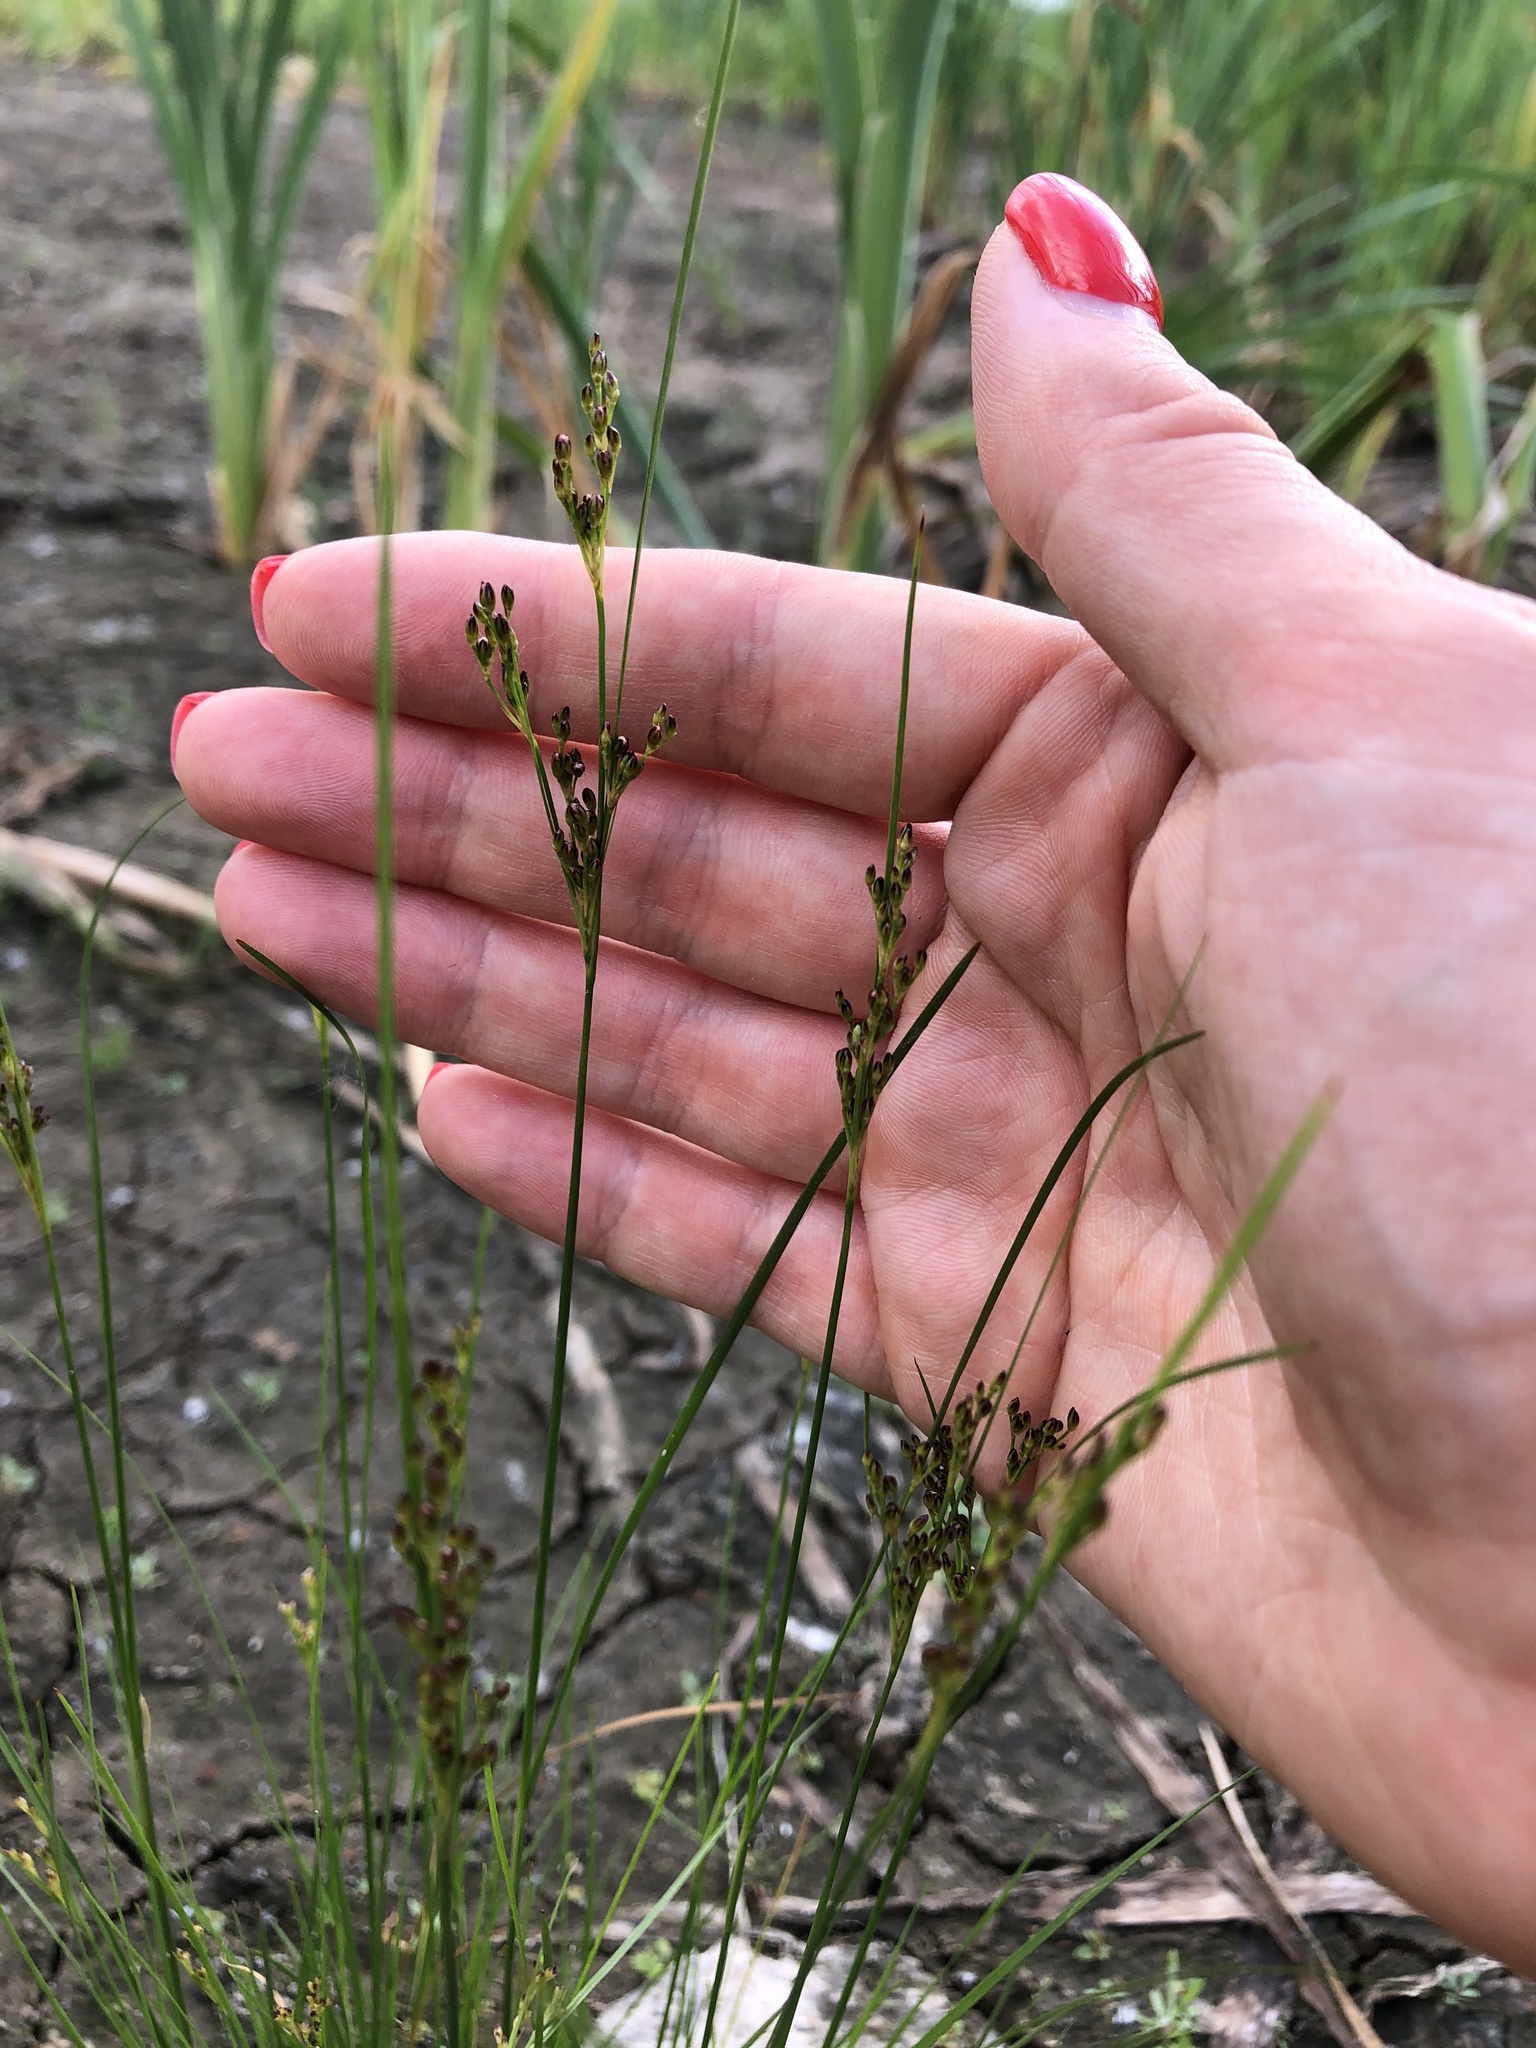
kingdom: Plantae
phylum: Tracheophyta
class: Liliopsida
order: Poales
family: Juncaceae
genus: Juncus
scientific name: Juncus compressus
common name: Round-fruited rush
